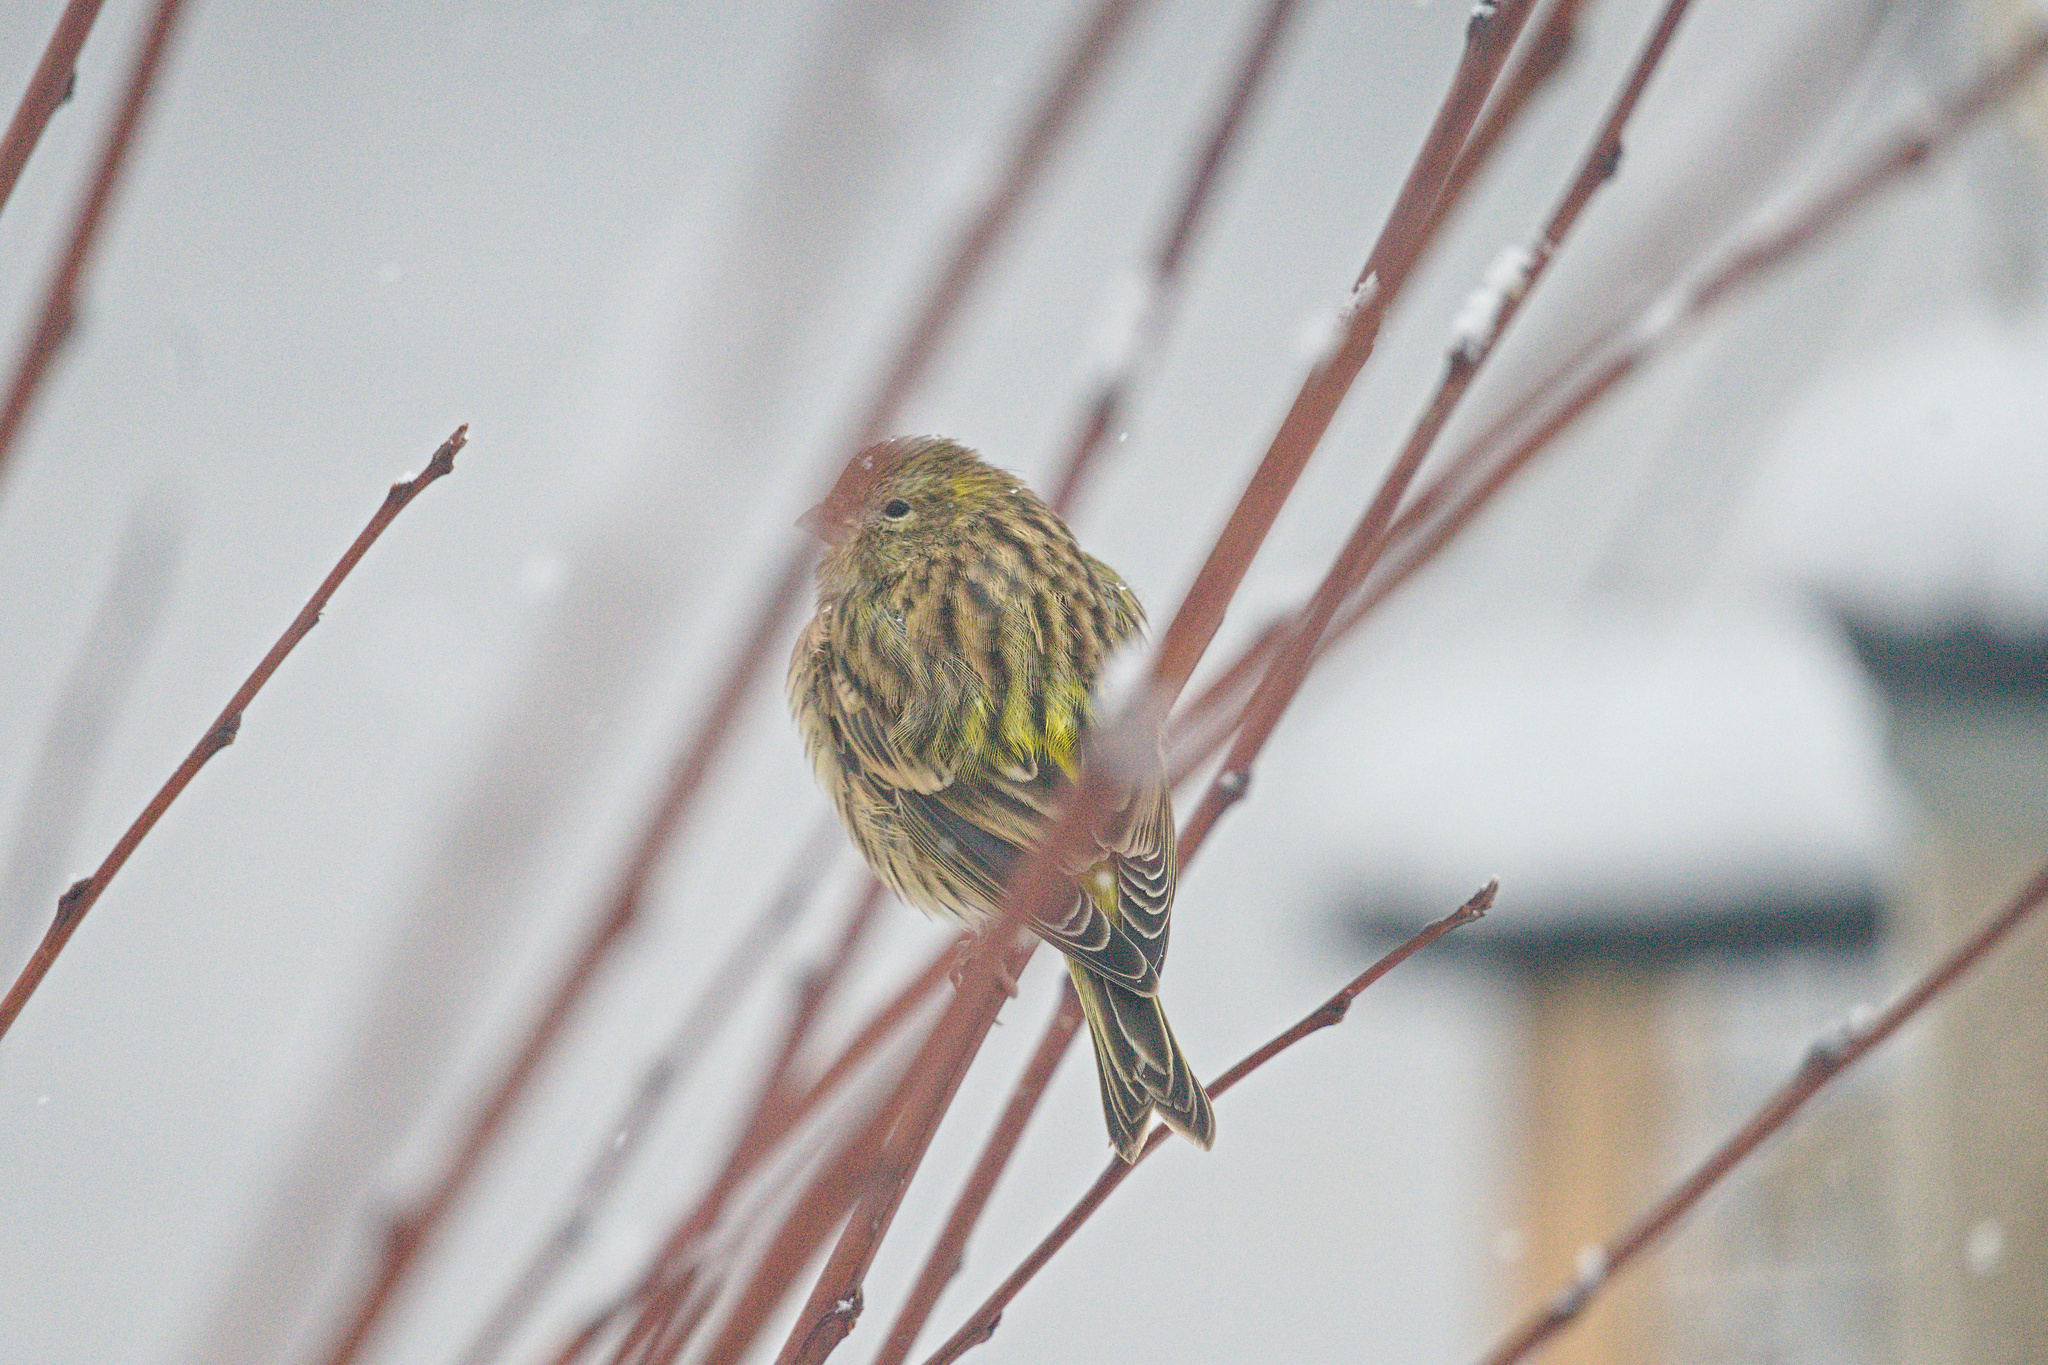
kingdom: Animalia
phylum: Chordata
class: Aves
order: Passeriformes
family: Fringillidae
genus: Serinus
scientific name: Serinus serinus
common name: European serin
